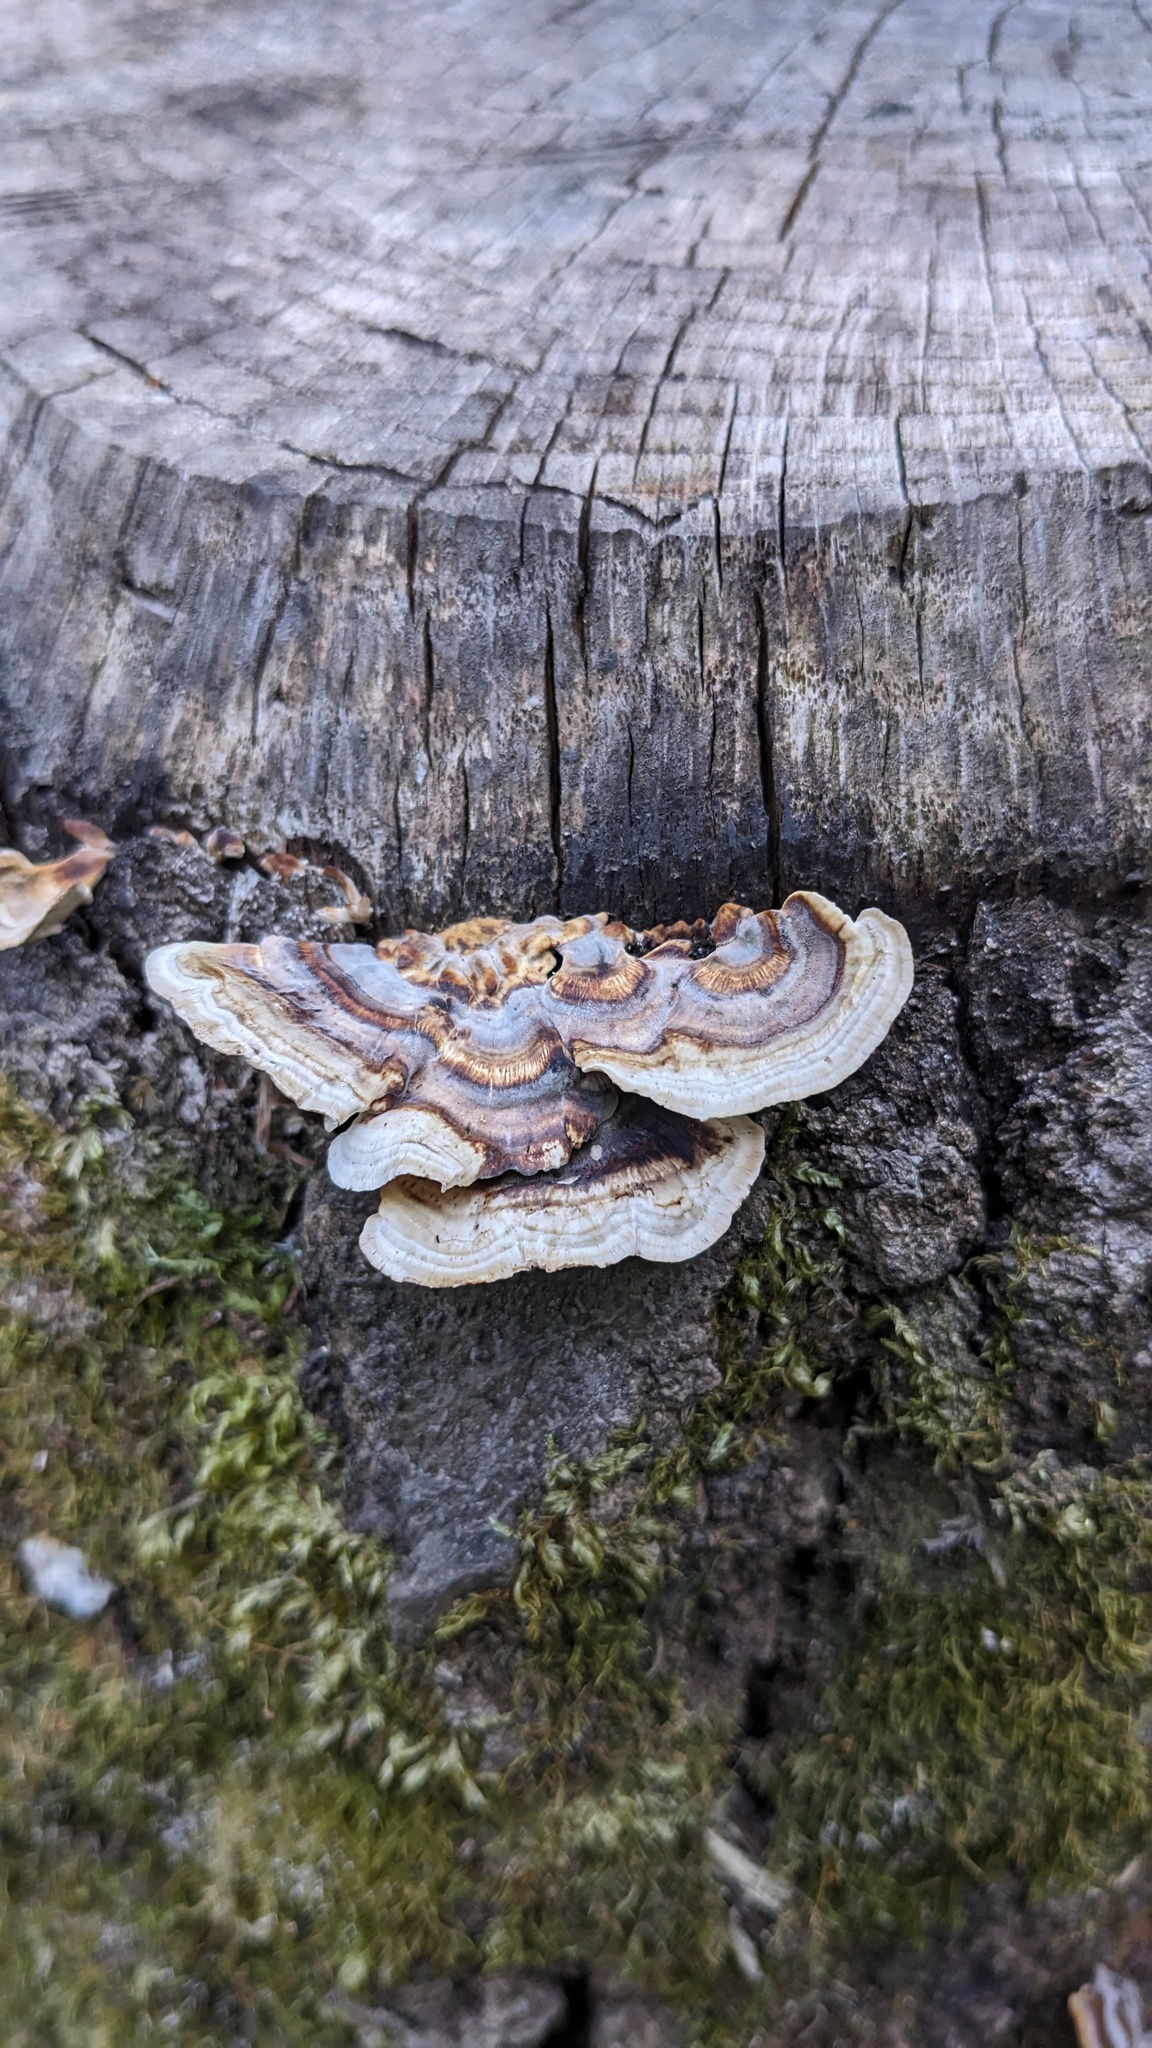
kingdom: Fungi
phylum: Basidiomycota
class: Agaricomycetes
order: Polyporales
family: Polyporaceae
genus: Microporus
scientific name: Microporus affinis
